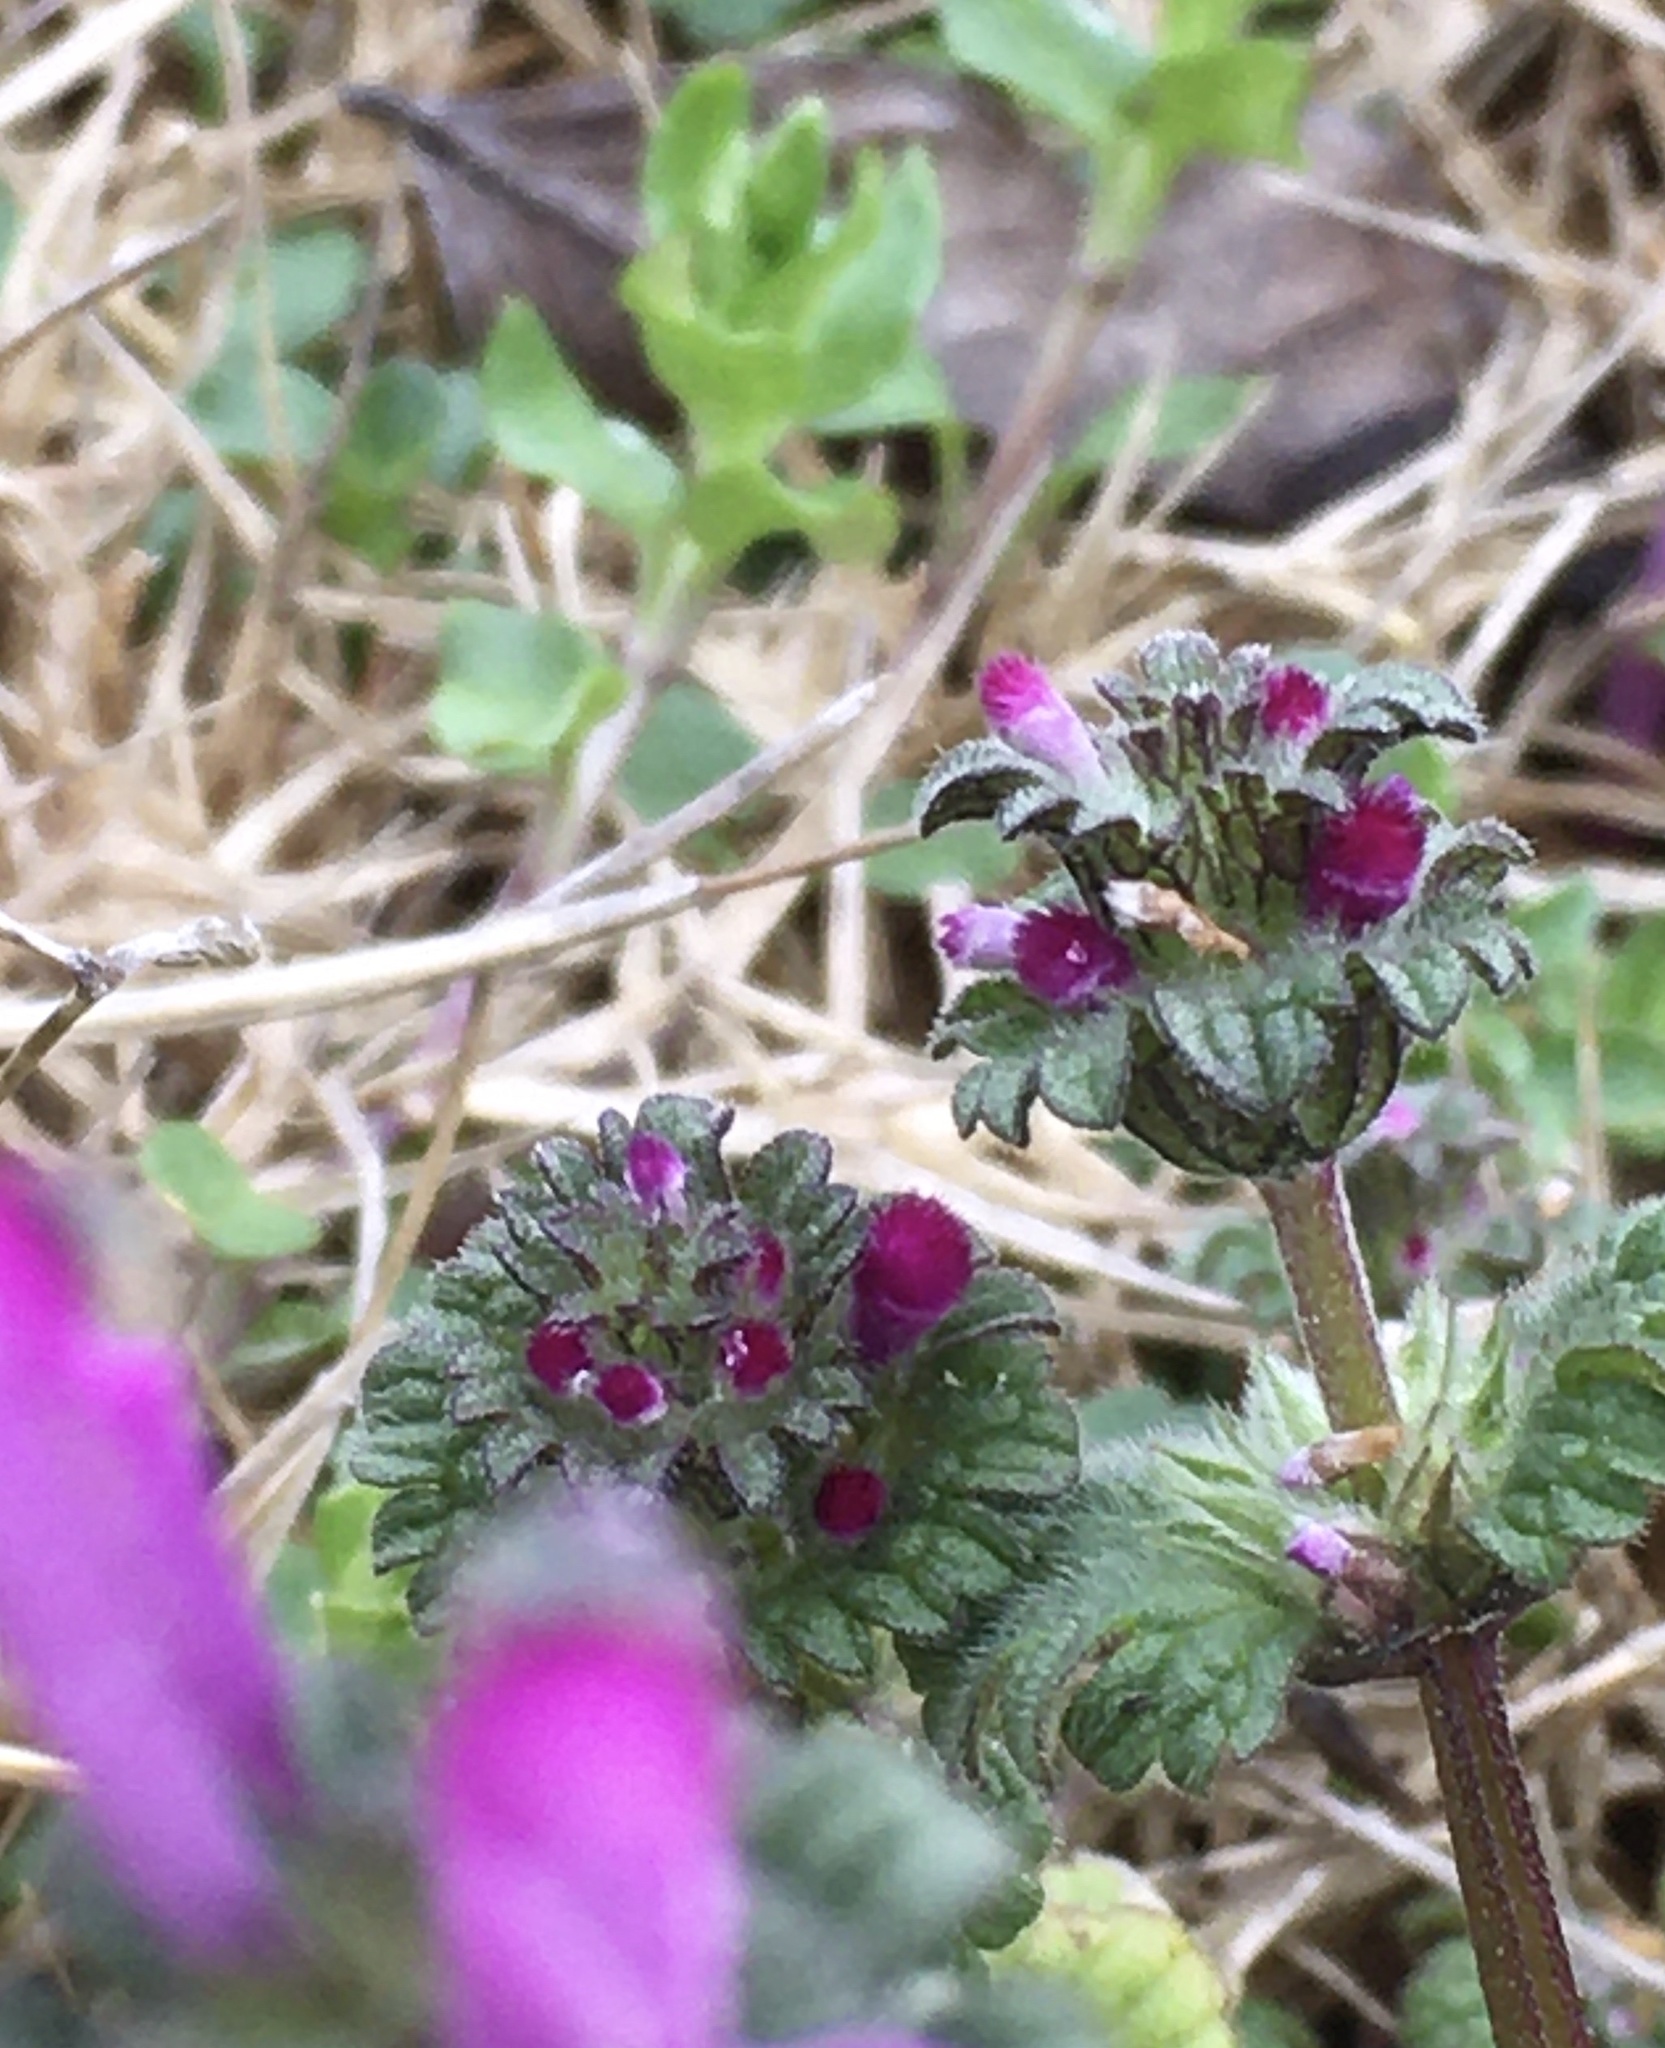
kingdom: Plantae
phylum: Tracheophyta
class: Magnoliopsida
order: Lamiales
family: Lamiaceae
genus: Lamium
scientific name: Lamium amplexicaule
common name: Henbit dead-nettle
